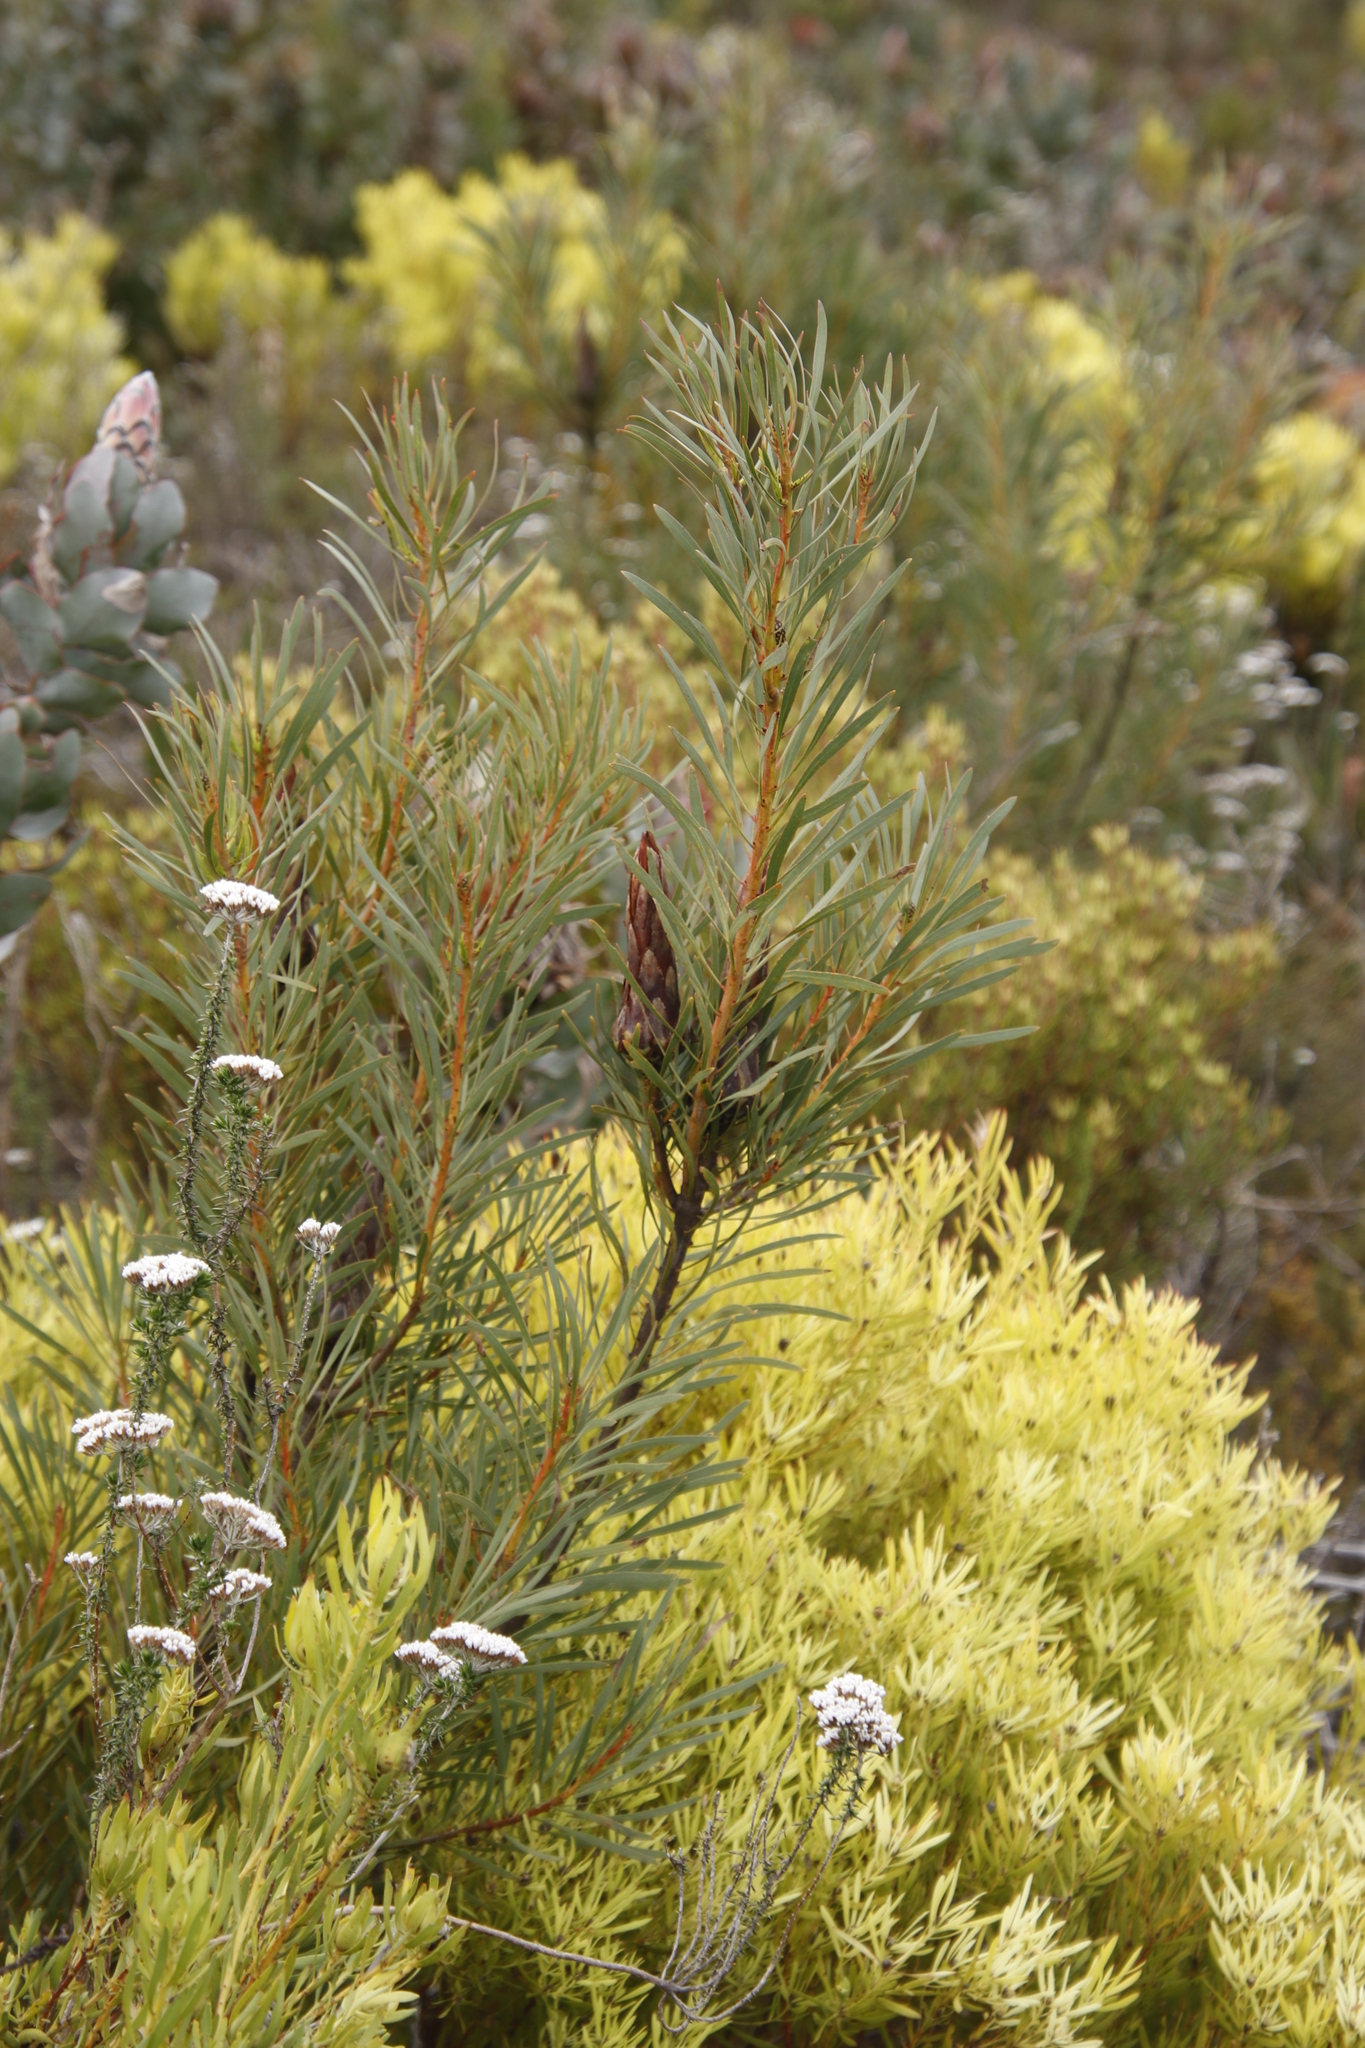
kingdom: Plantae
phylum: Tracheophyta
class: Magnoliopsida
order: Proteales
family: Proteaceae
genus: Leucadendron
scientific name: Leucadendron salignum
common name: Common sunshine conebush
